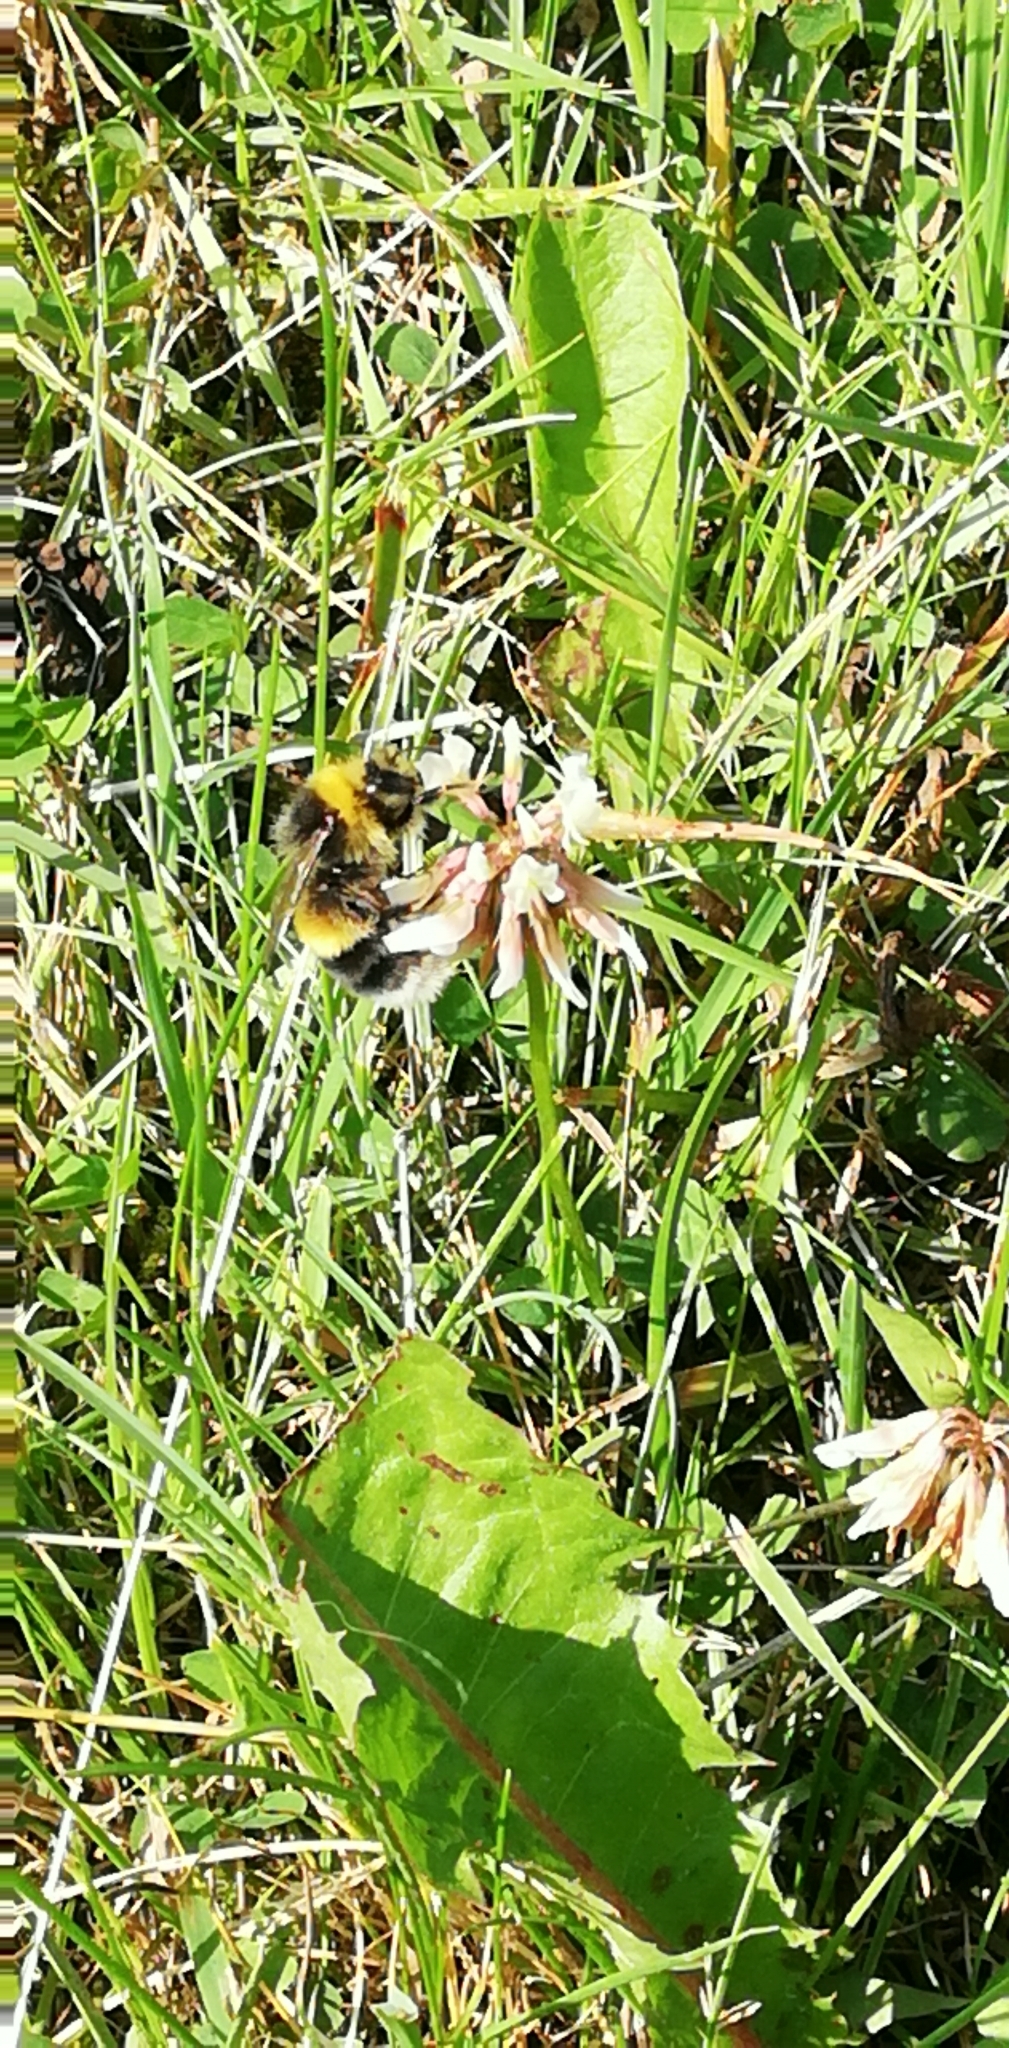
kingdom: Animalia
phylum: Arthropoda
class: Insecta
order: Hymenoptera
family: Apidae
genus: Bombus
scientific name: Bombus lucorum
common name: White-tailed bumblebee
